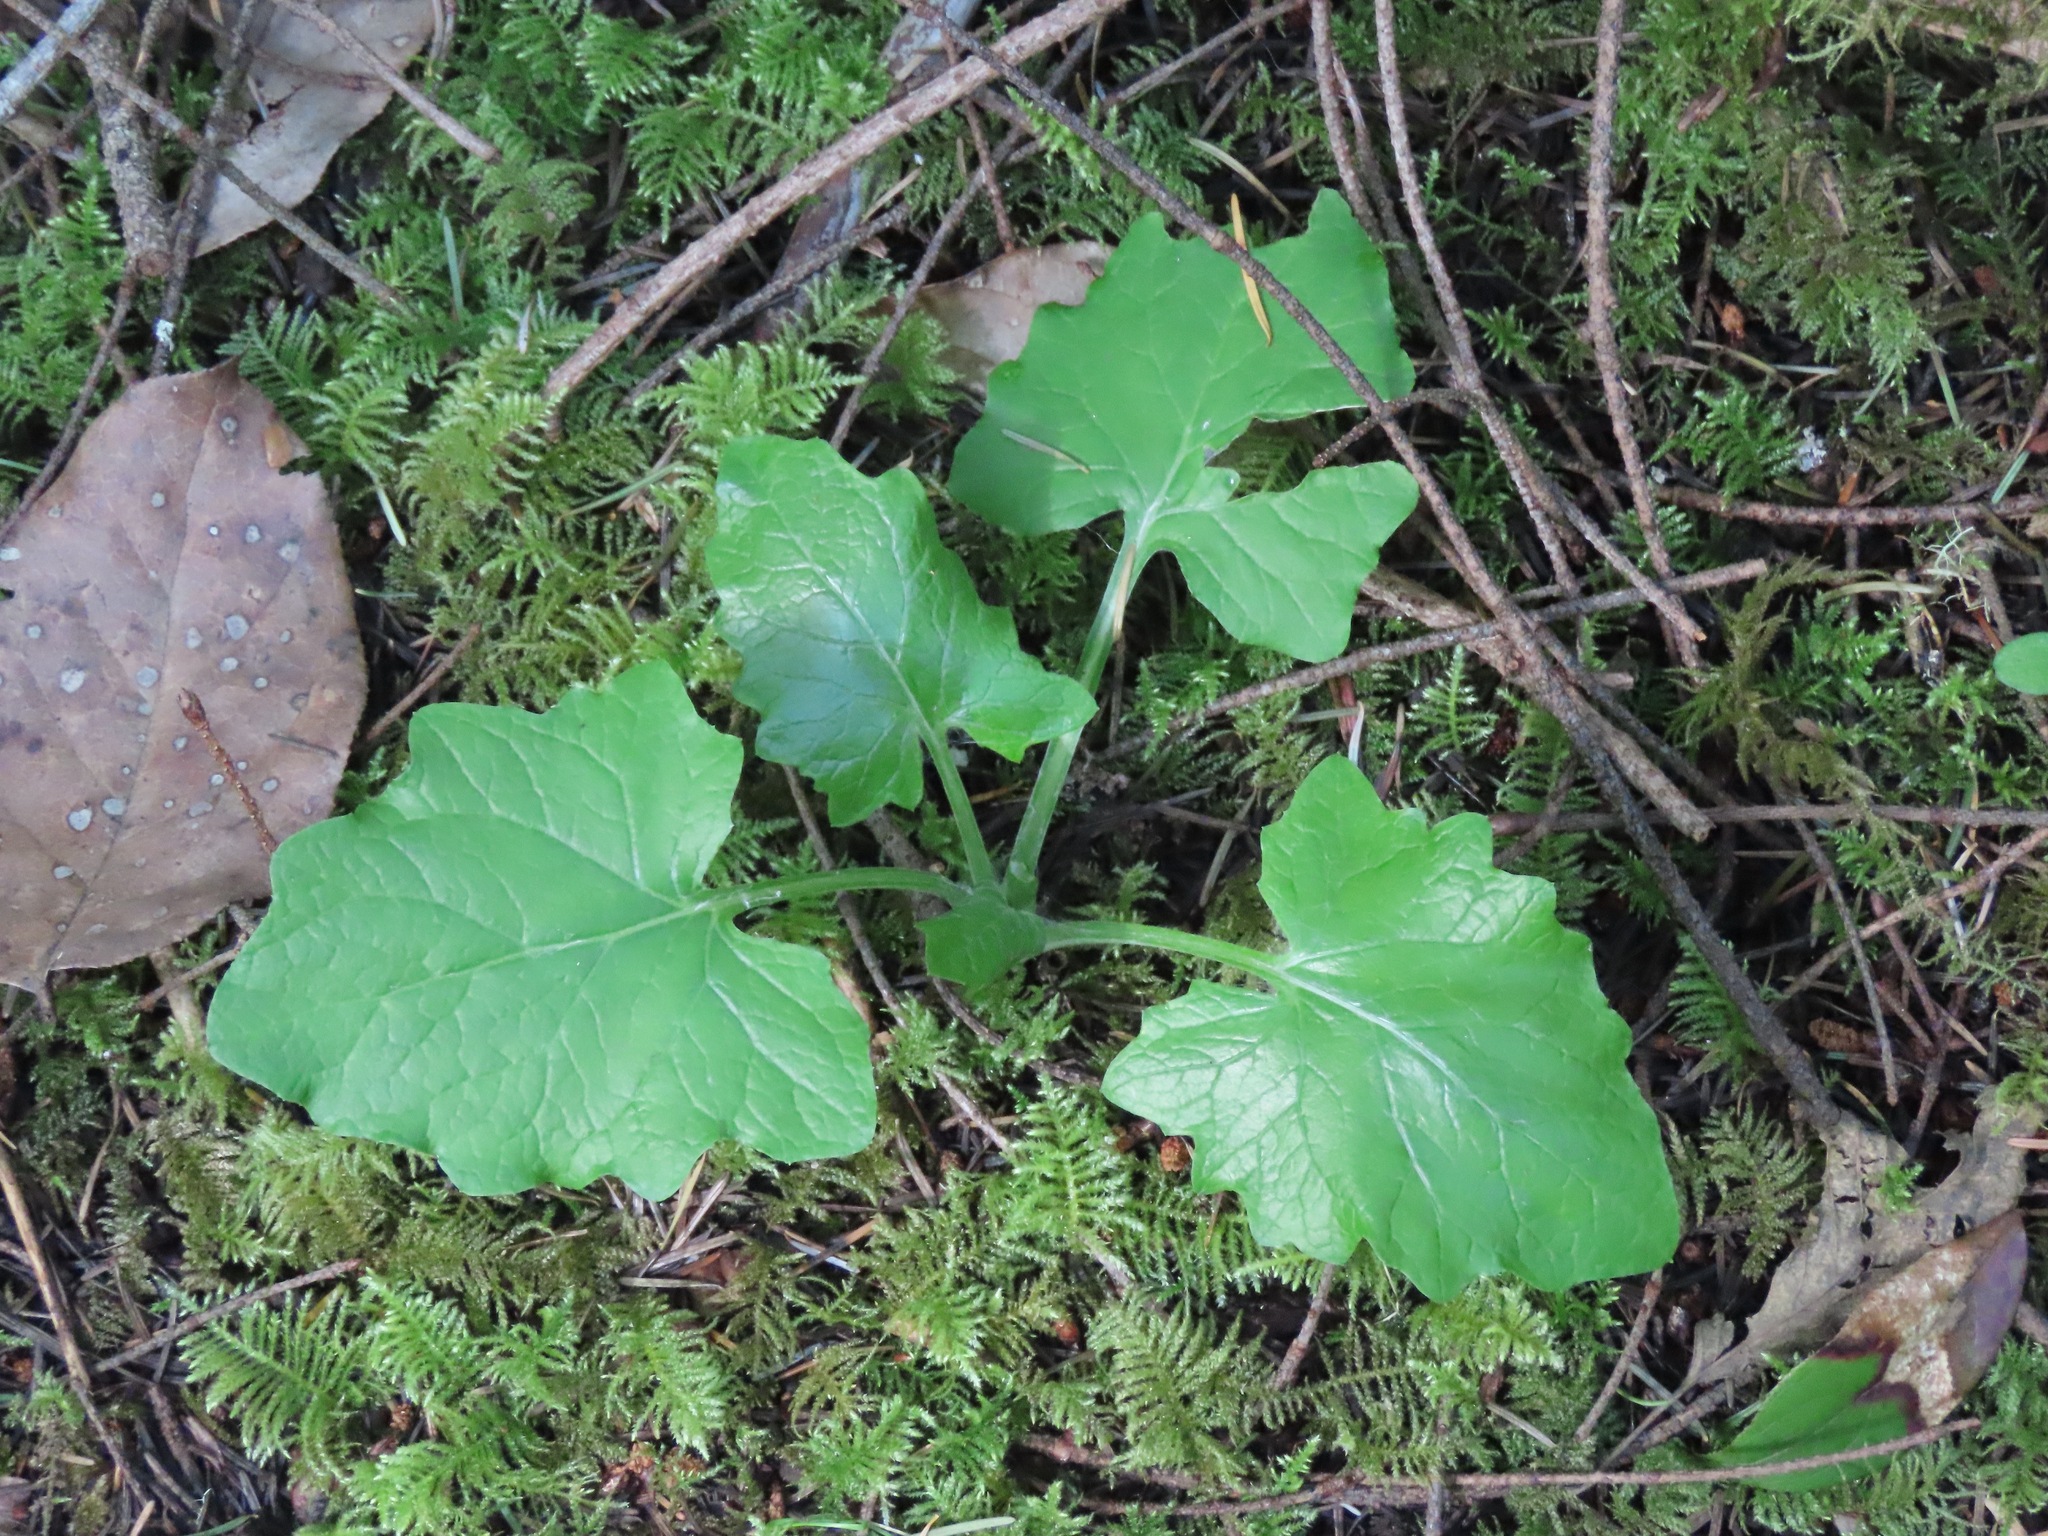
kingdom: Plantae
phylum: Tracheophyta
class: Magnoliopsida
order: Asterales
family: Asteraceae
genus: Adenocaulon
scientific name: Adenocaulon bicolor
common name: Trailplant
